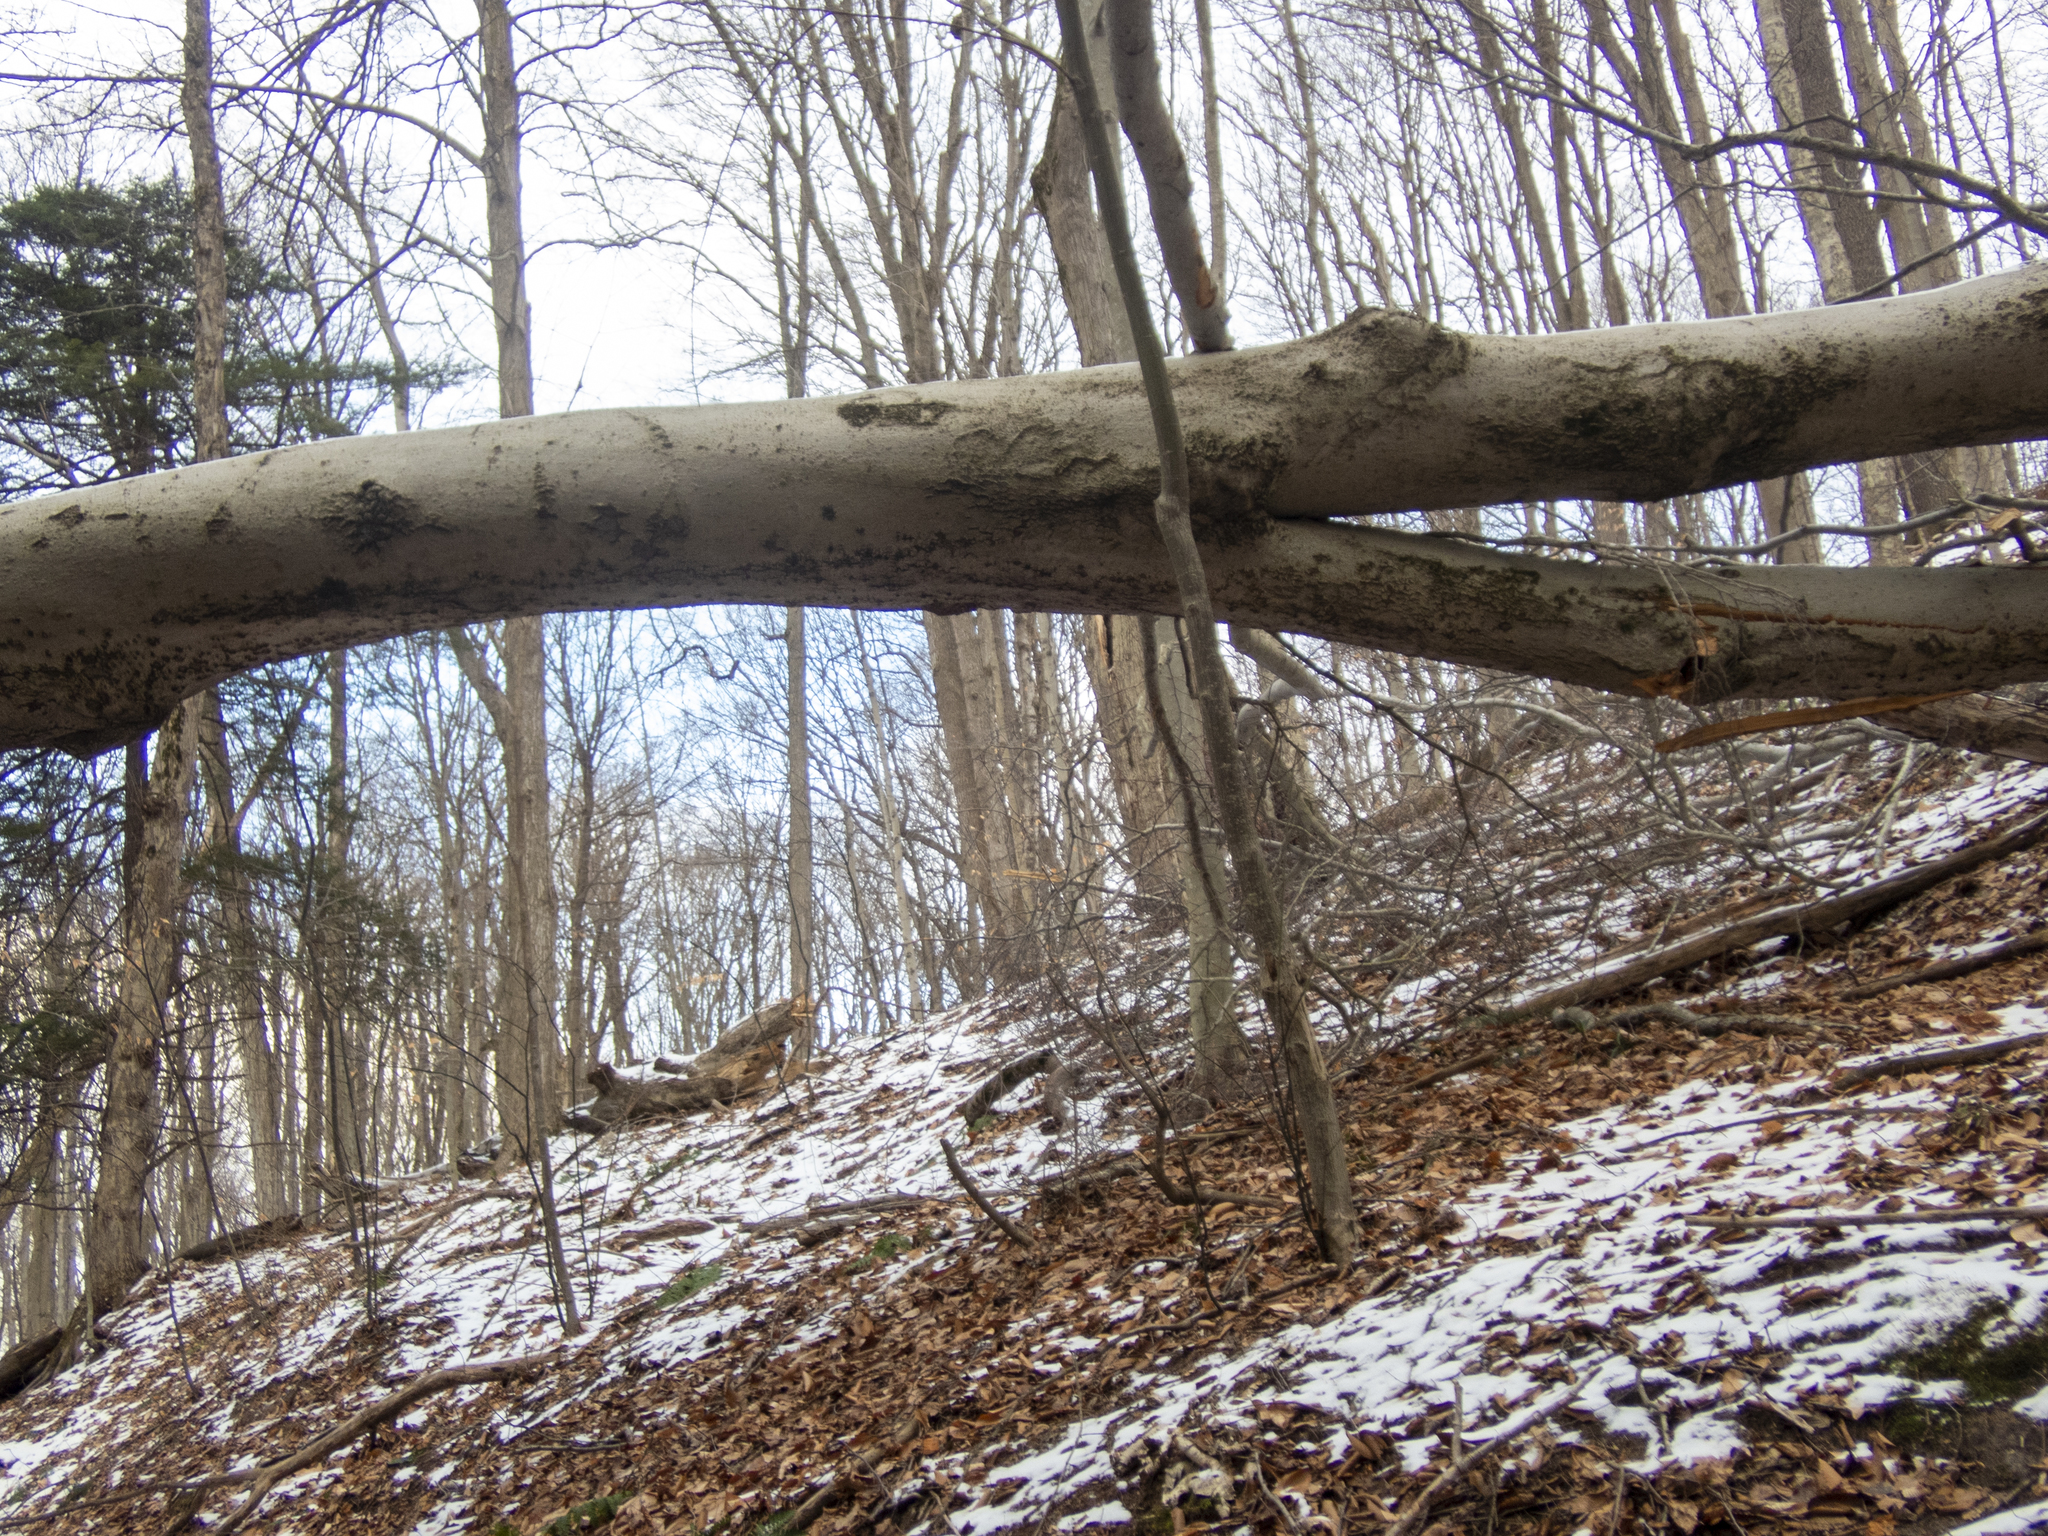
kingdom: Plantae
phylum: Tracheophyta
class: Magnoliopsida
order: Fagales
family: Fagaceae
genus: Fagus
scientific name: Fagus grandifolia
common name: American beech
